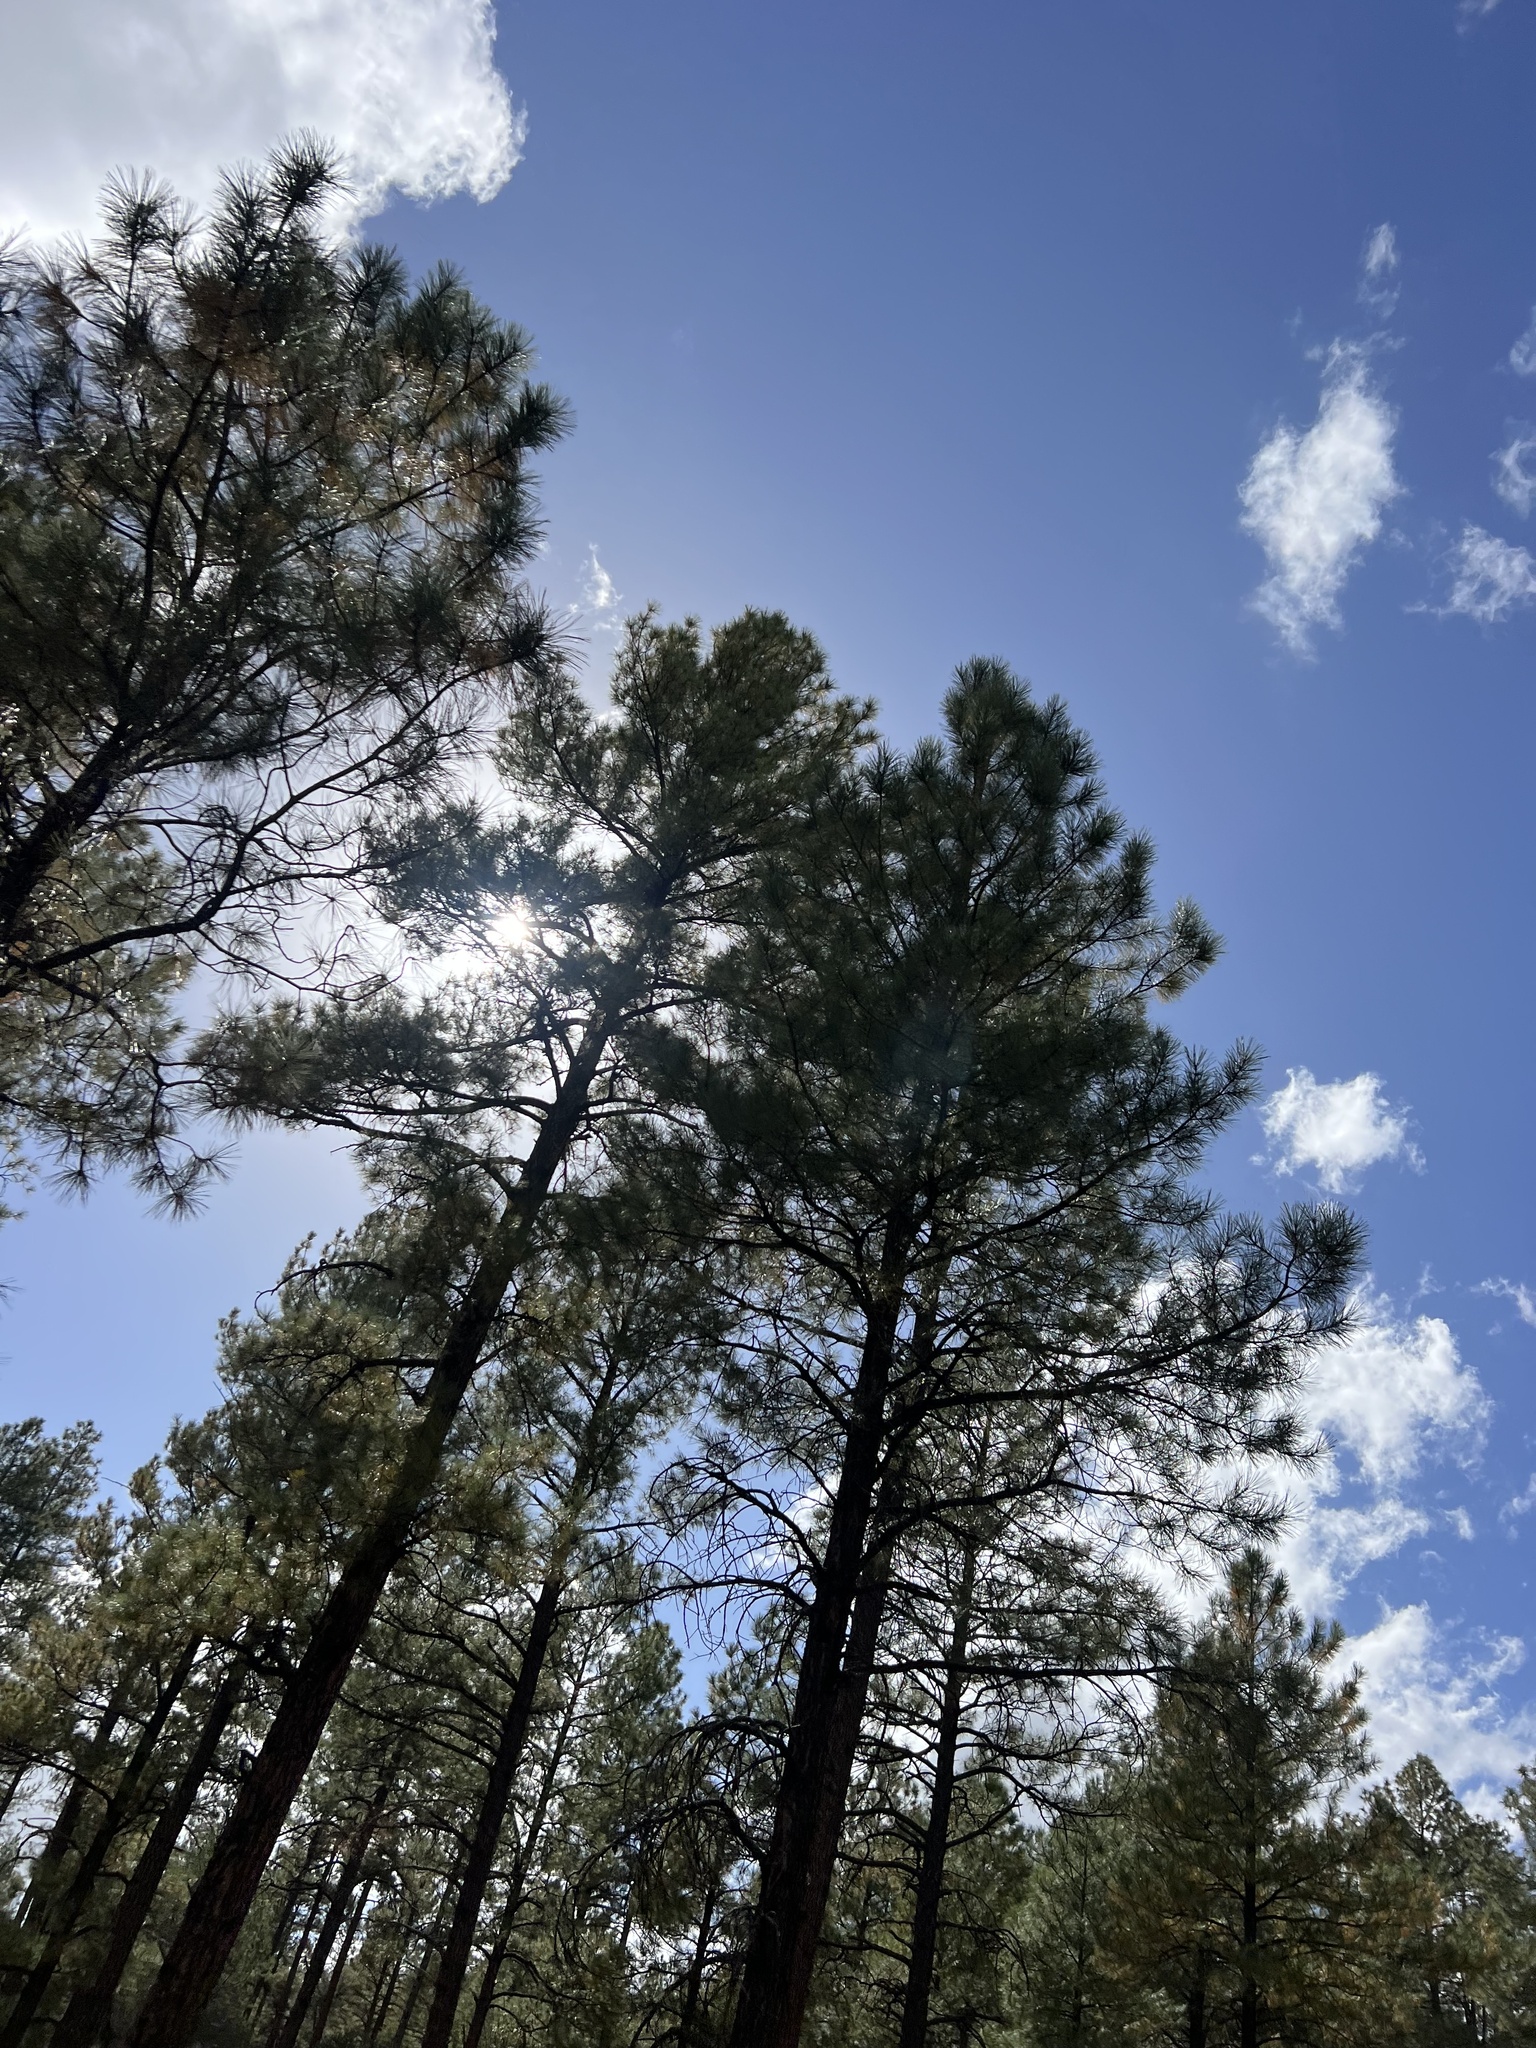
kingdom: Plantae
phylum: Tracheophyta
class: Pinopsida
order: Pinales
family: Pinaceae
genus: Pinus
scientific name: Pinus ponderosa
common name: Western yellow-pine
